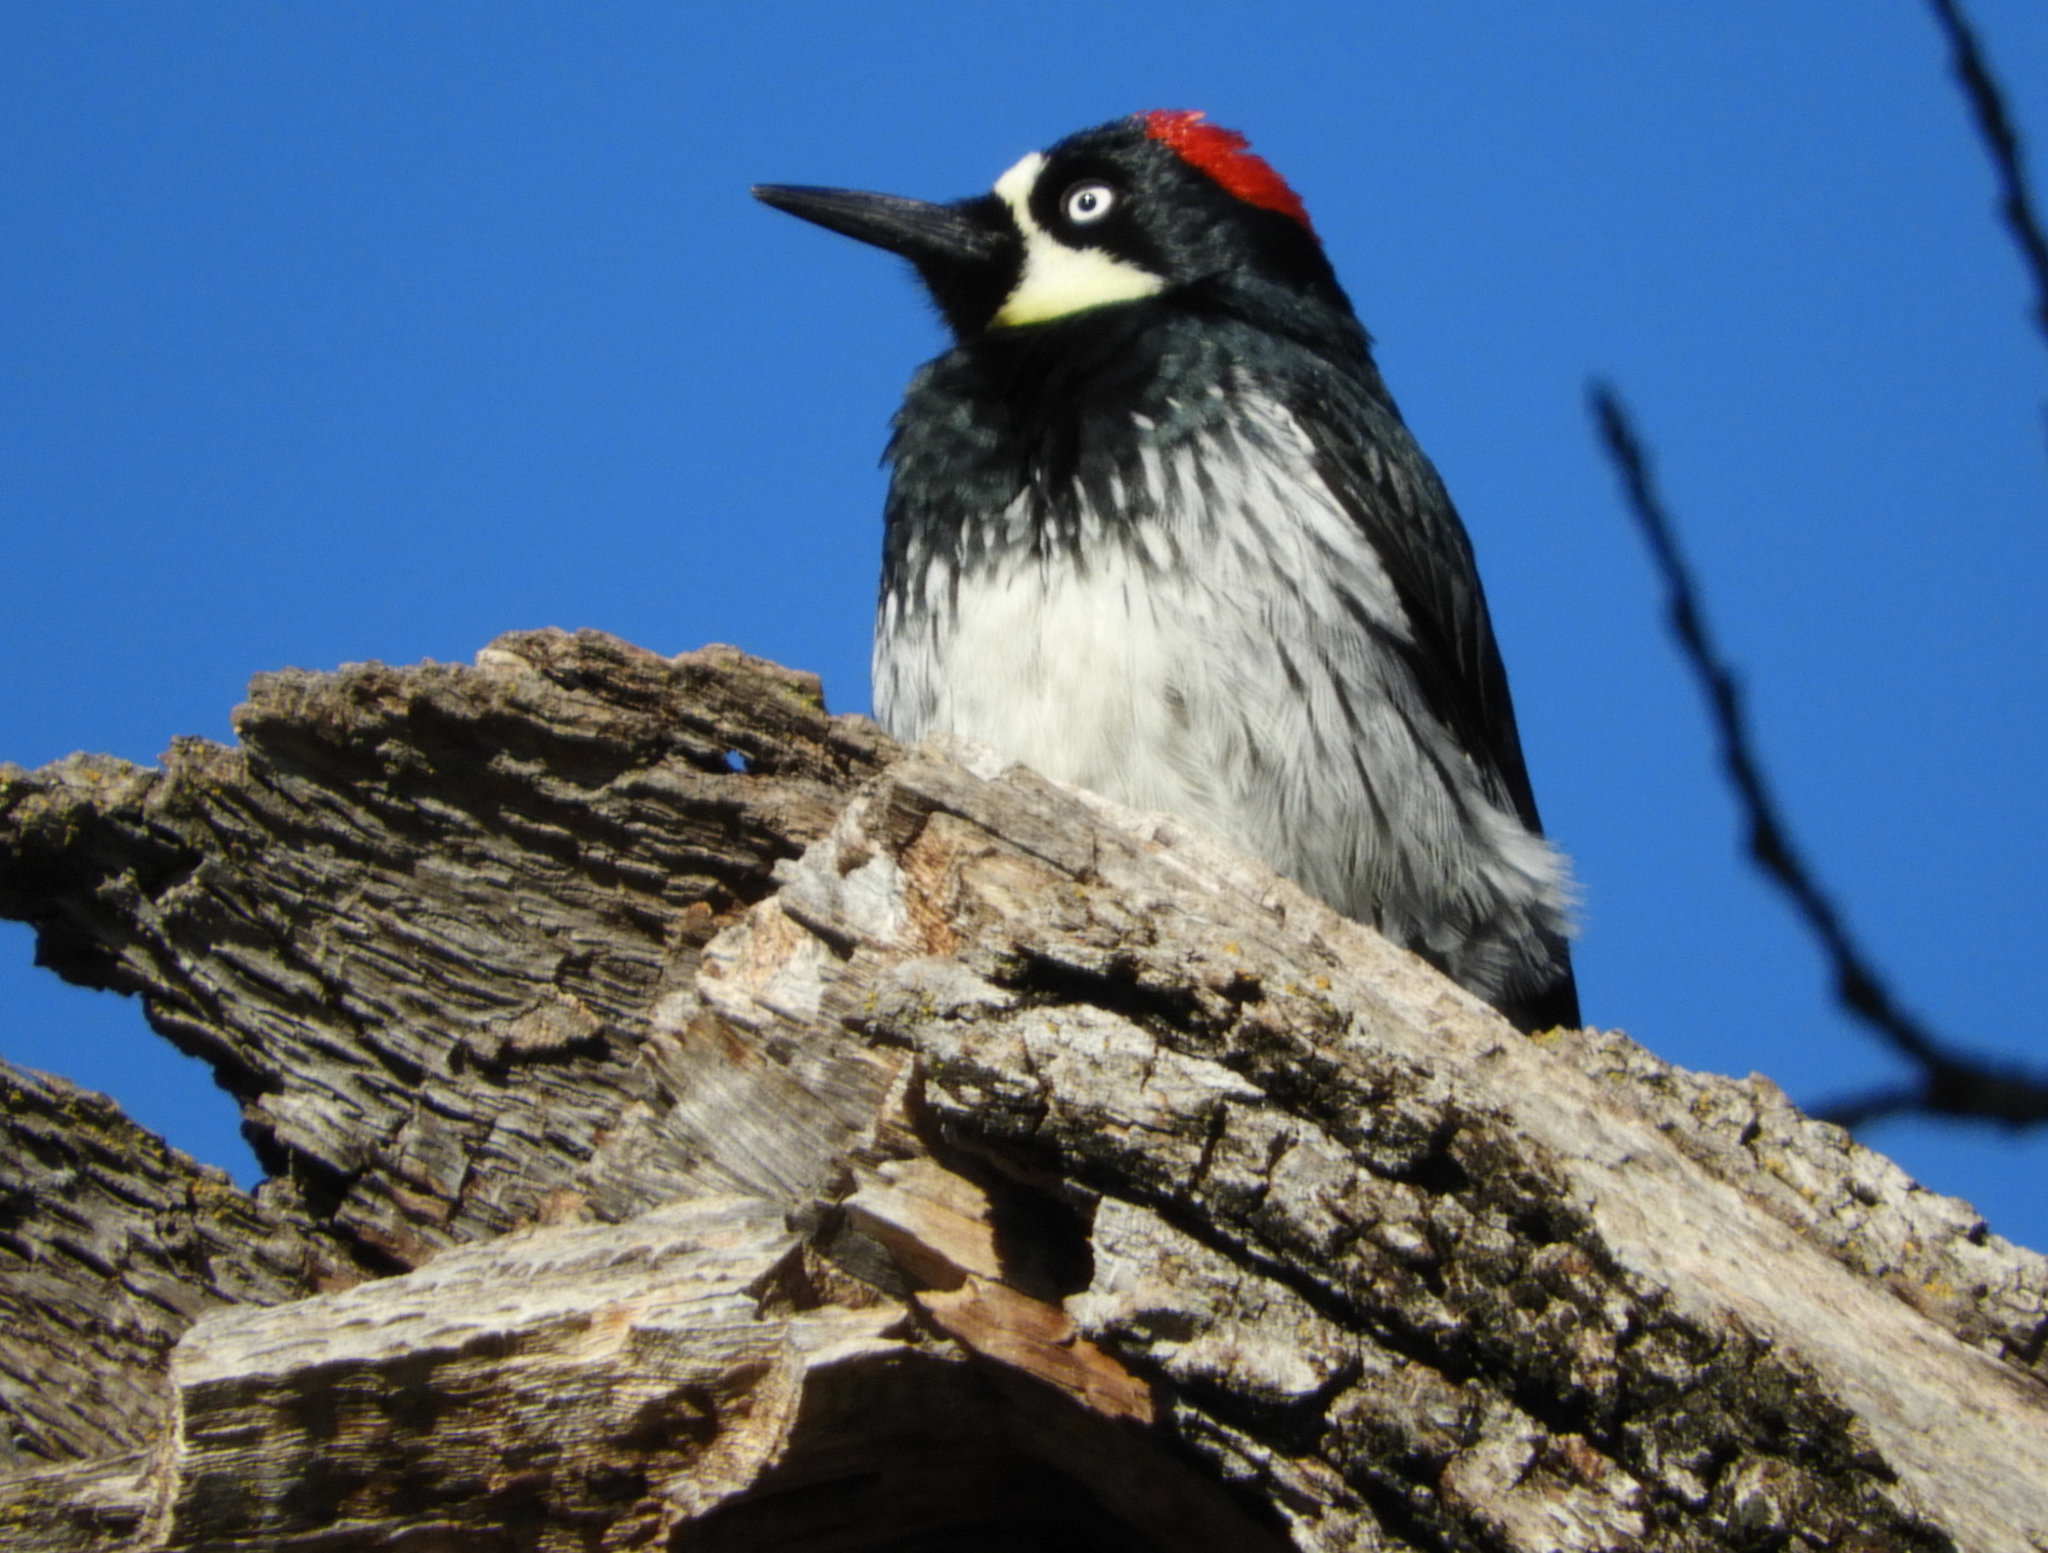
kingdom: Animalia
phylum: Chordata
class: Aves
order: Piciformes
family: Picidae
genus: Melanerpes
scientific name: Melanerpes formicivorus
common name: Acorn woodpecker
